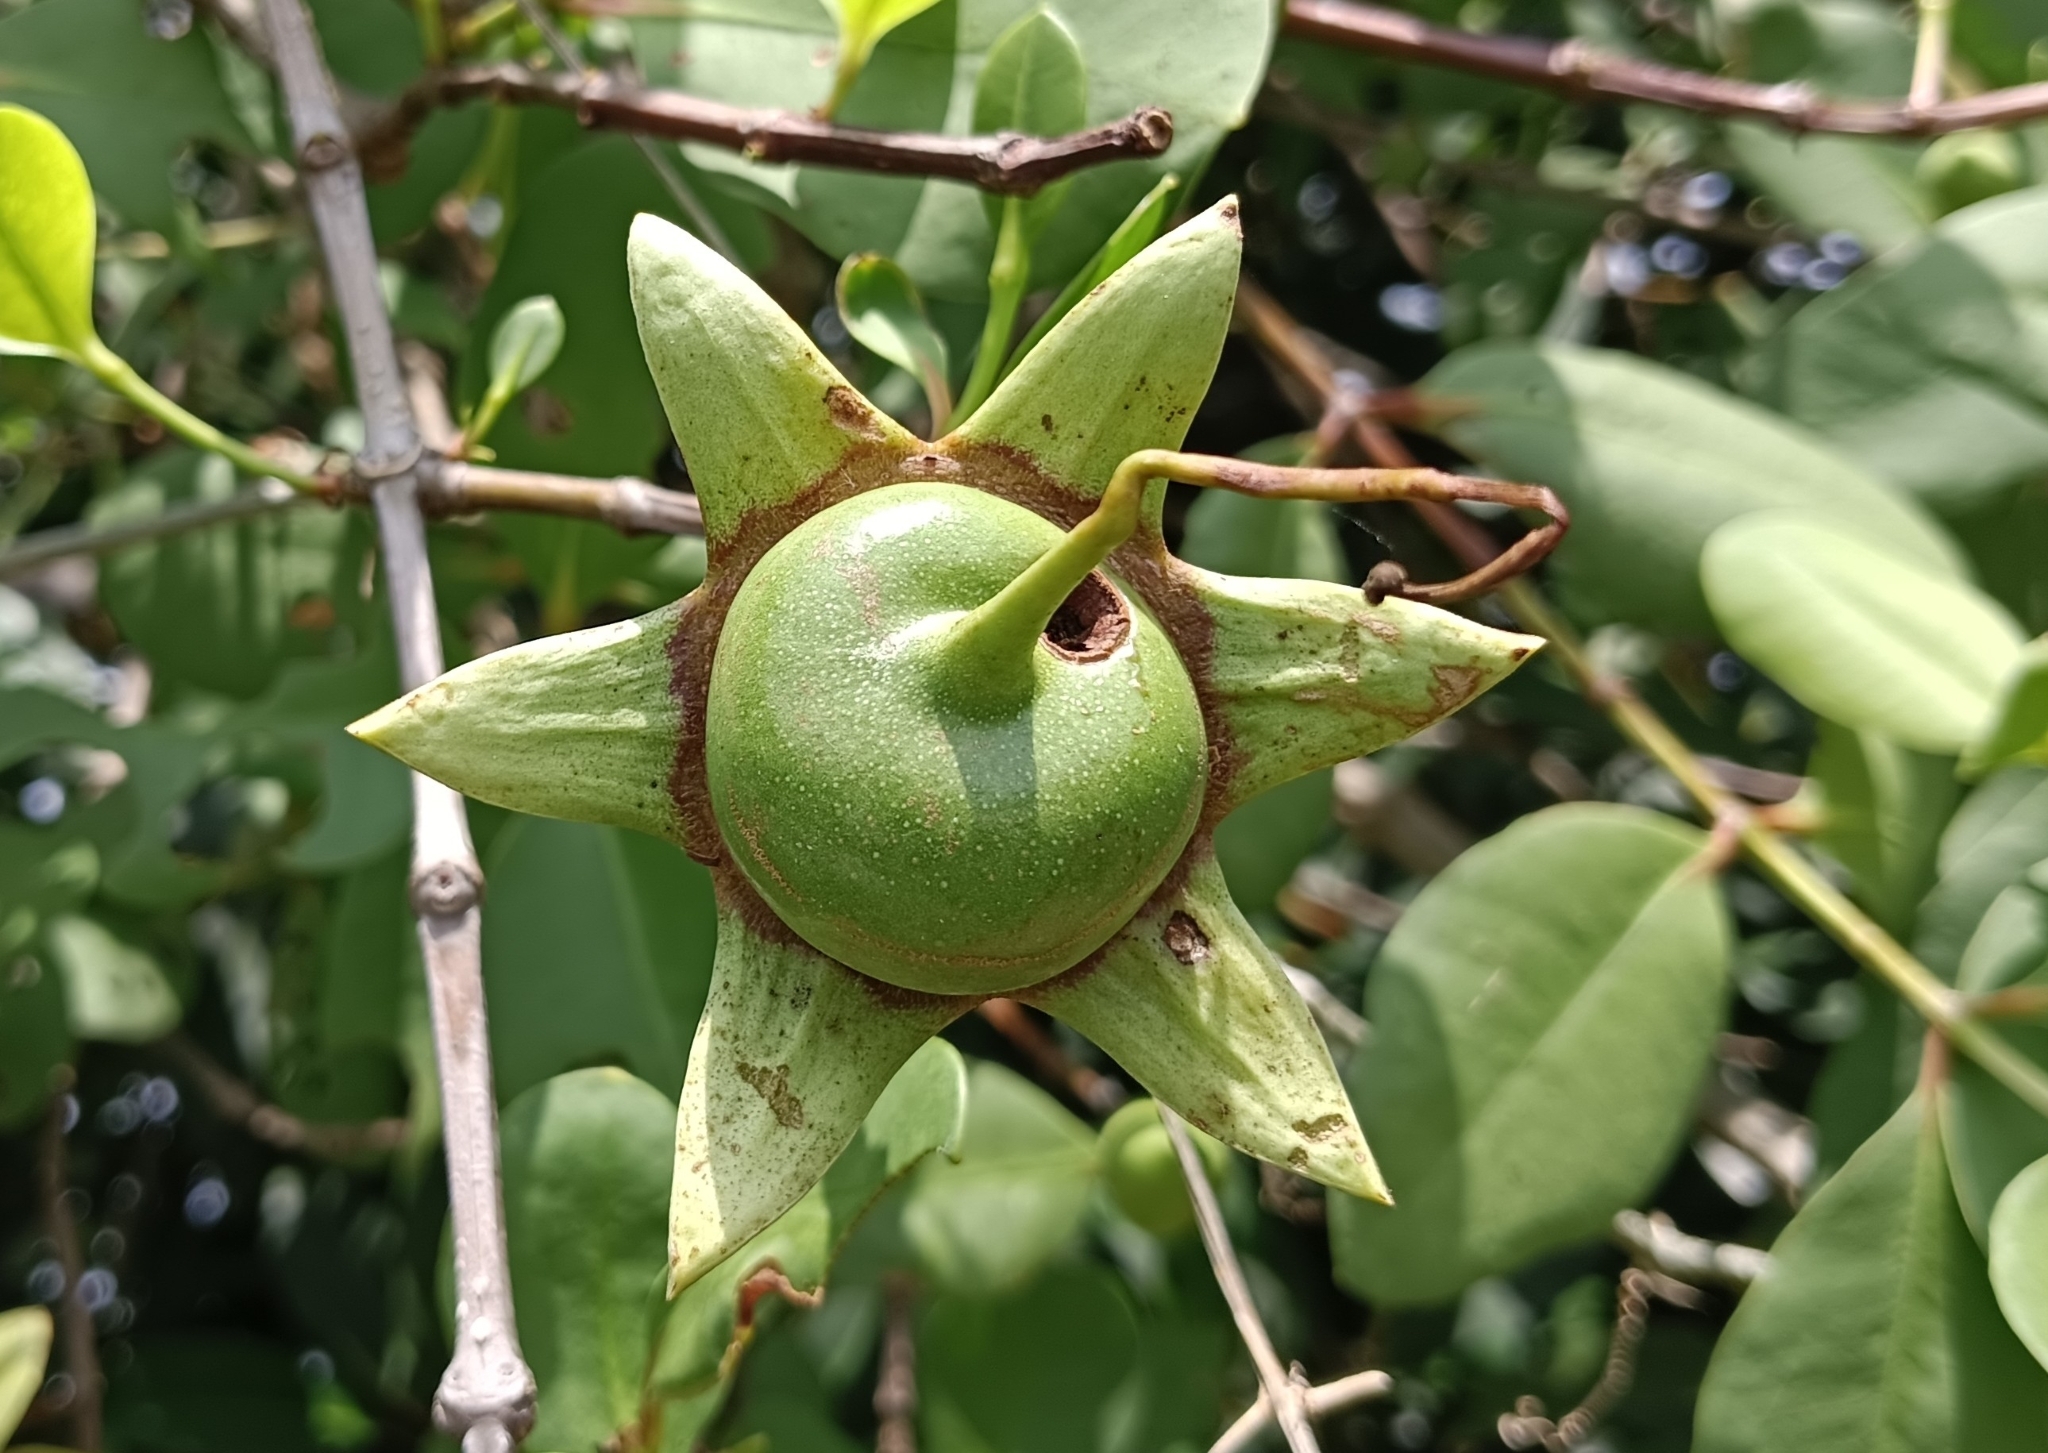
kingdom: Plantae
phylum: Tracheophyta
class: Magnoliopsida
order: Myrtales
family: Lythraceae
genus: Sonneratia
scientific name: Sonneratia caseolaris
